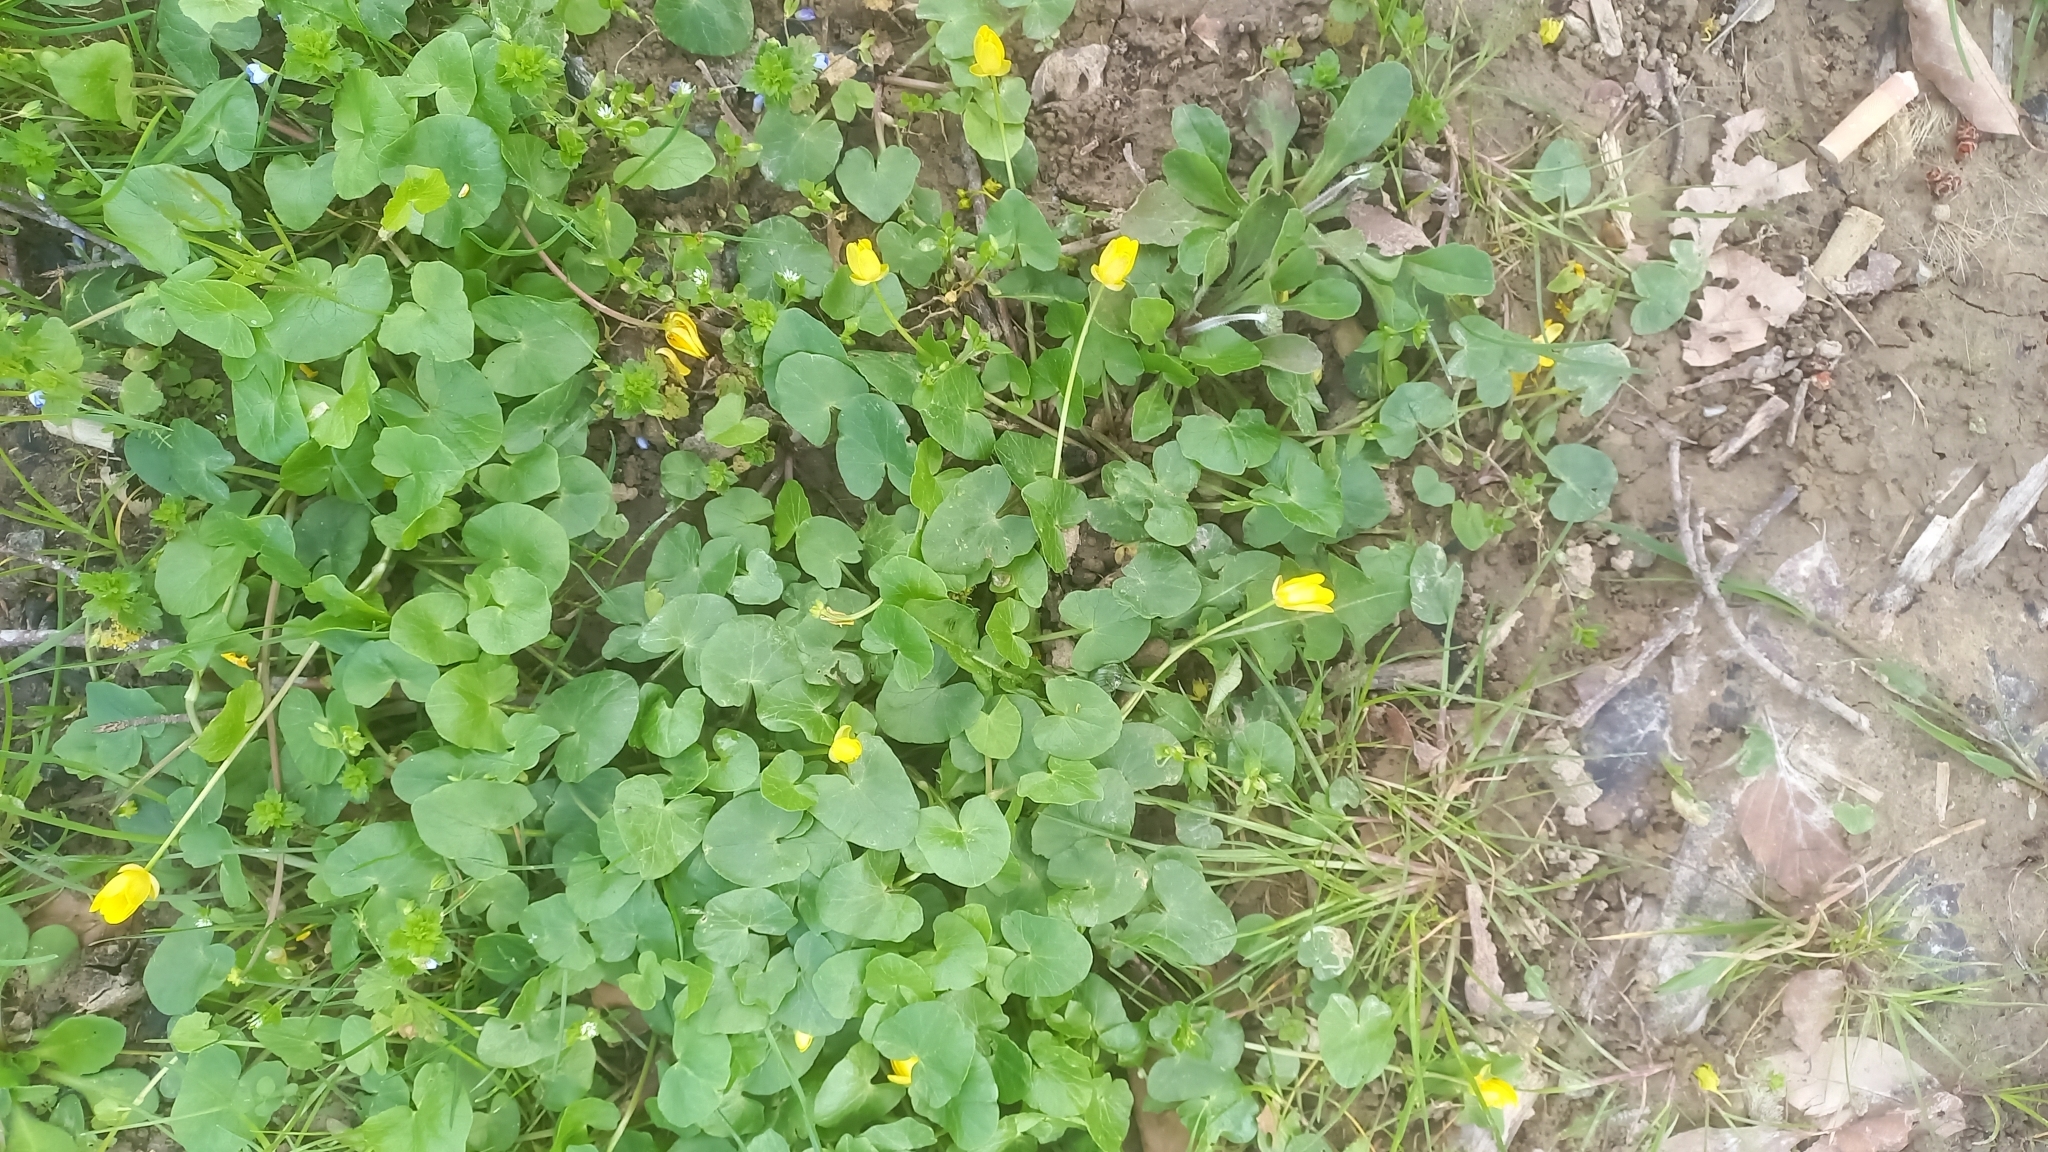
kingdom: Plantae
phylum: Tracheophyta
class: Magnoliopsida
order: Ranunculales
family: Ranunculaceae
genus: Ficaria
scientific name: Ficaria verna
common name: Lesser celandine
